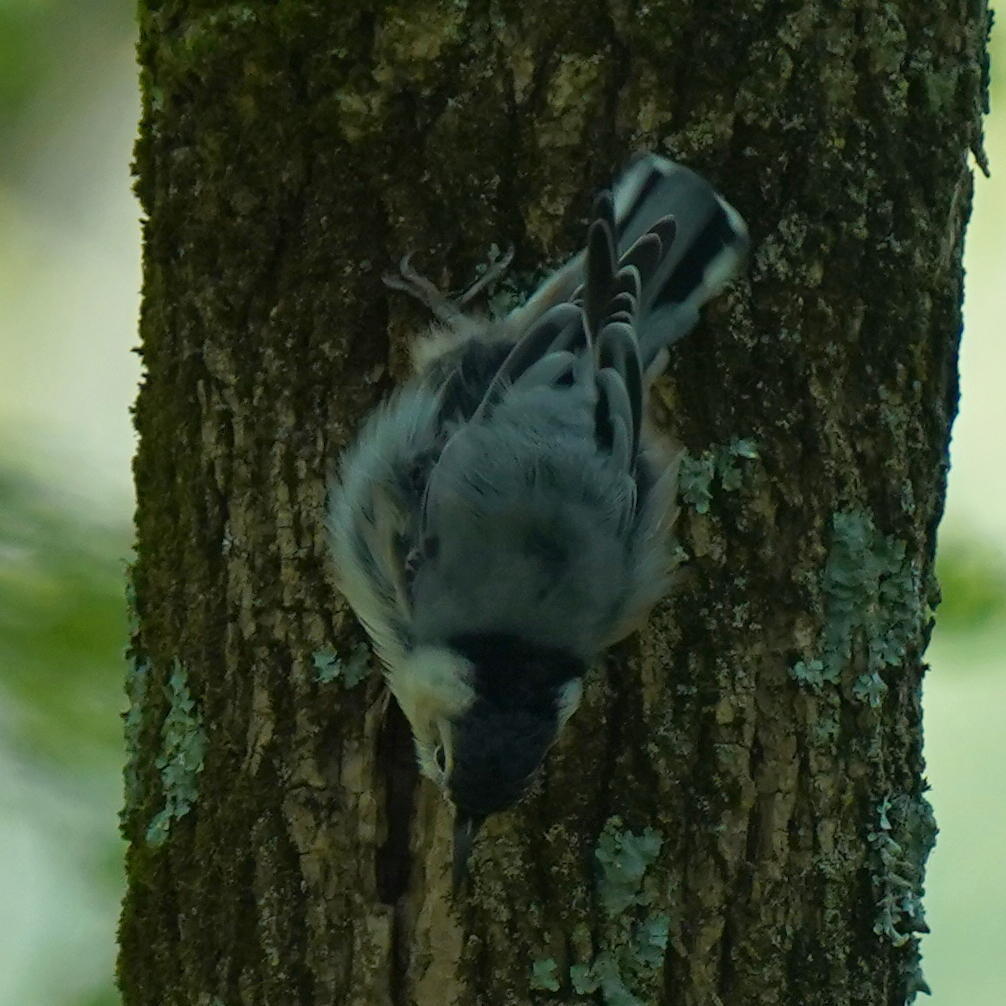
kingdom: Animalia
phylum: Chordata
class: Aves
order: Passeriformes
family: Sittidae
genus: Sitta
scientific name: Sitta carolinensis
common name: White-breasted nuthatch
